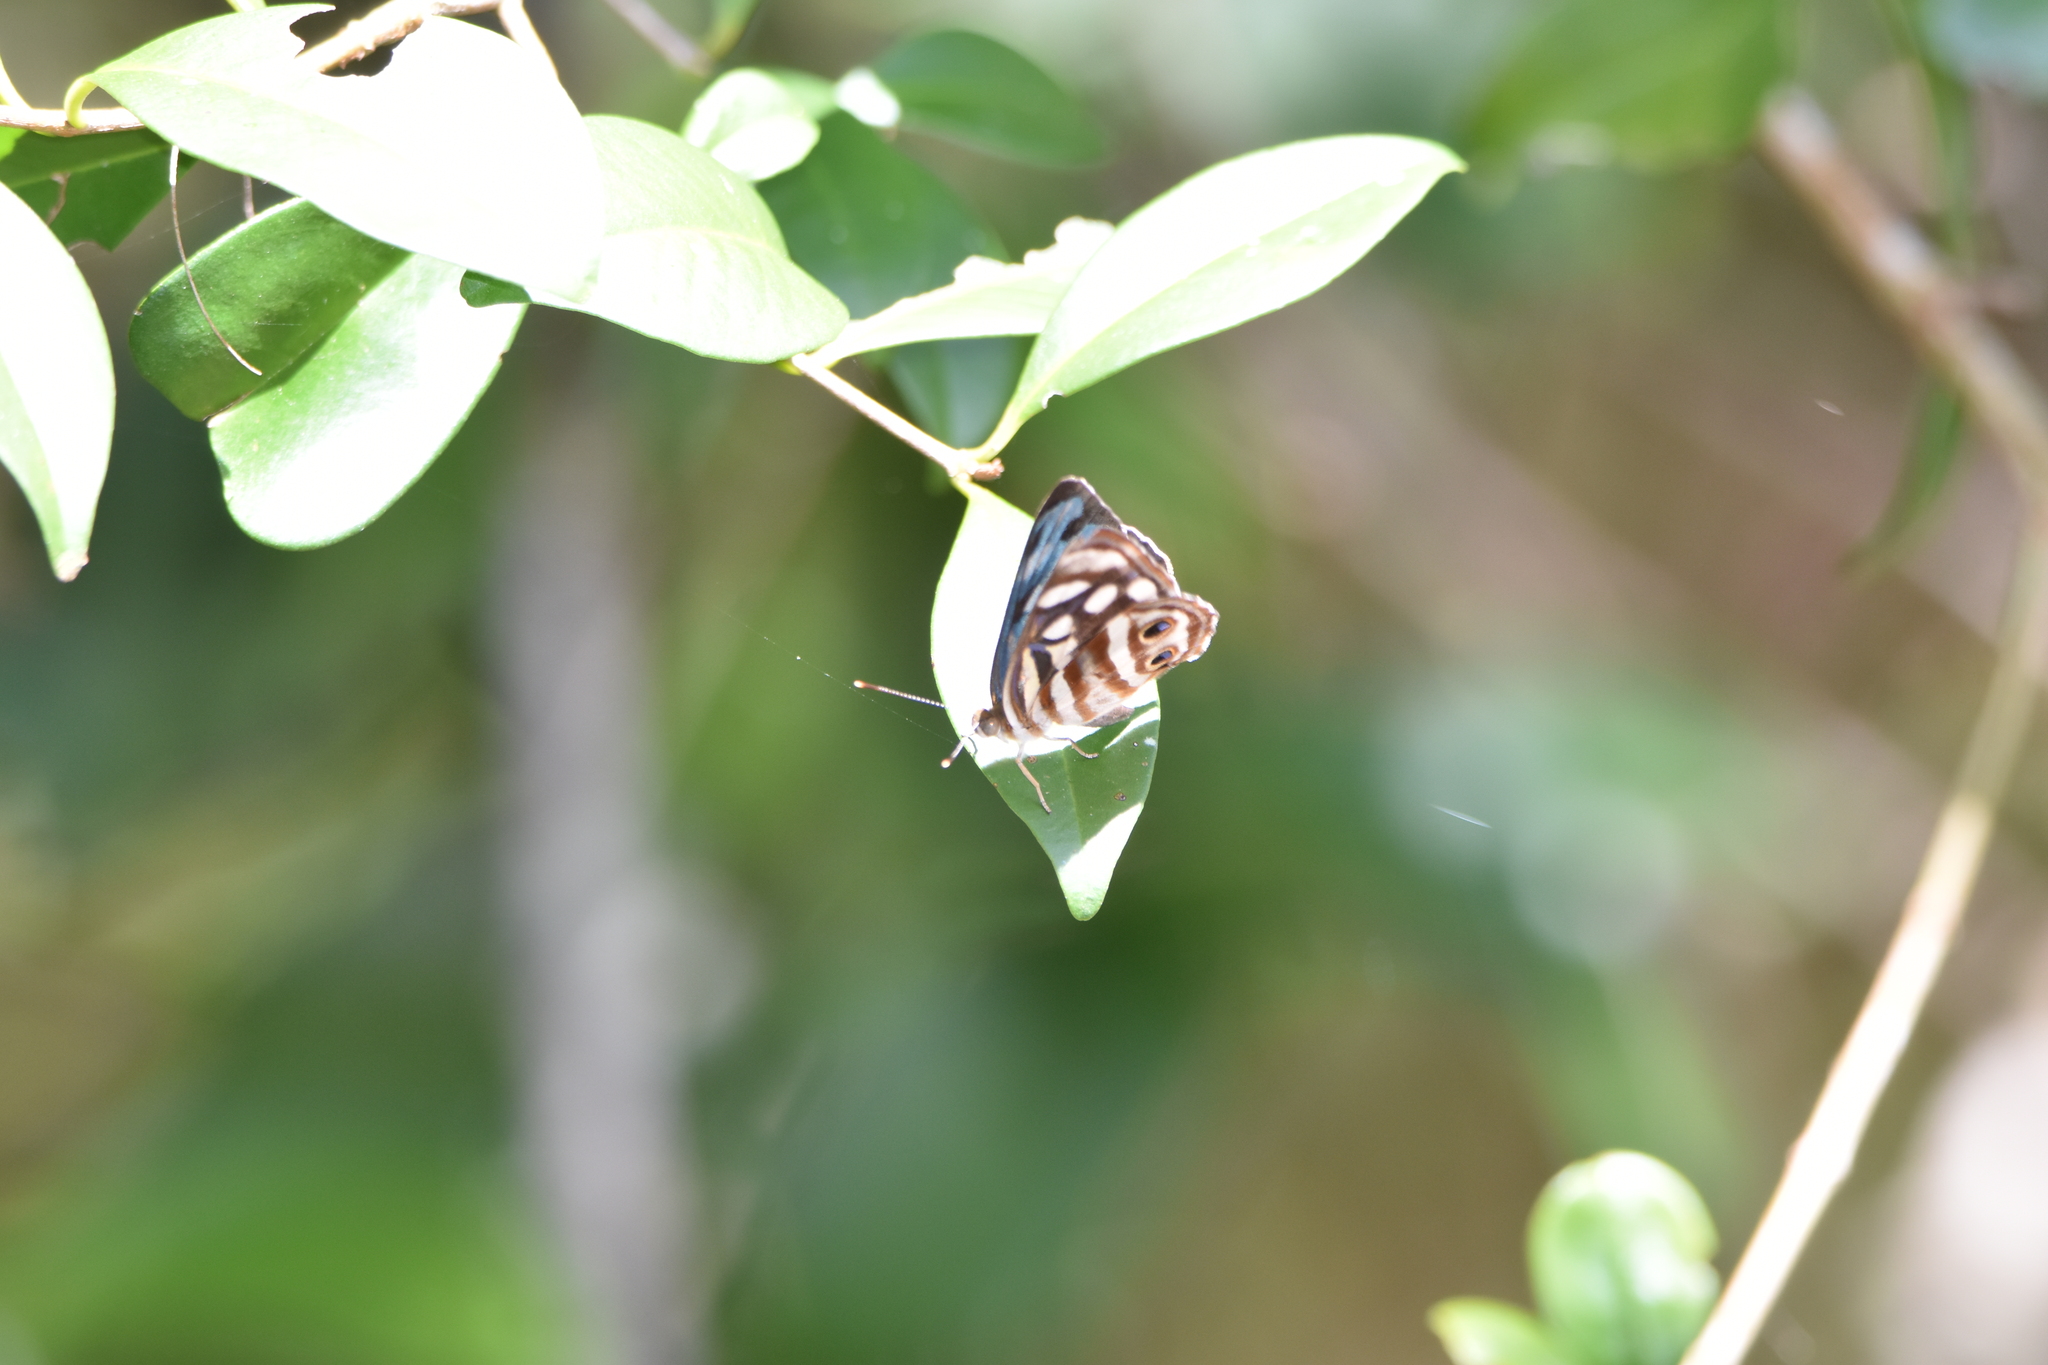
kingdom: Animalia
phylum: Arthropoda
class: Insecta
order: Lepidoptera
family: Nymphalidae
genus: Dynamine
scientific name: Dynamine mylitta
